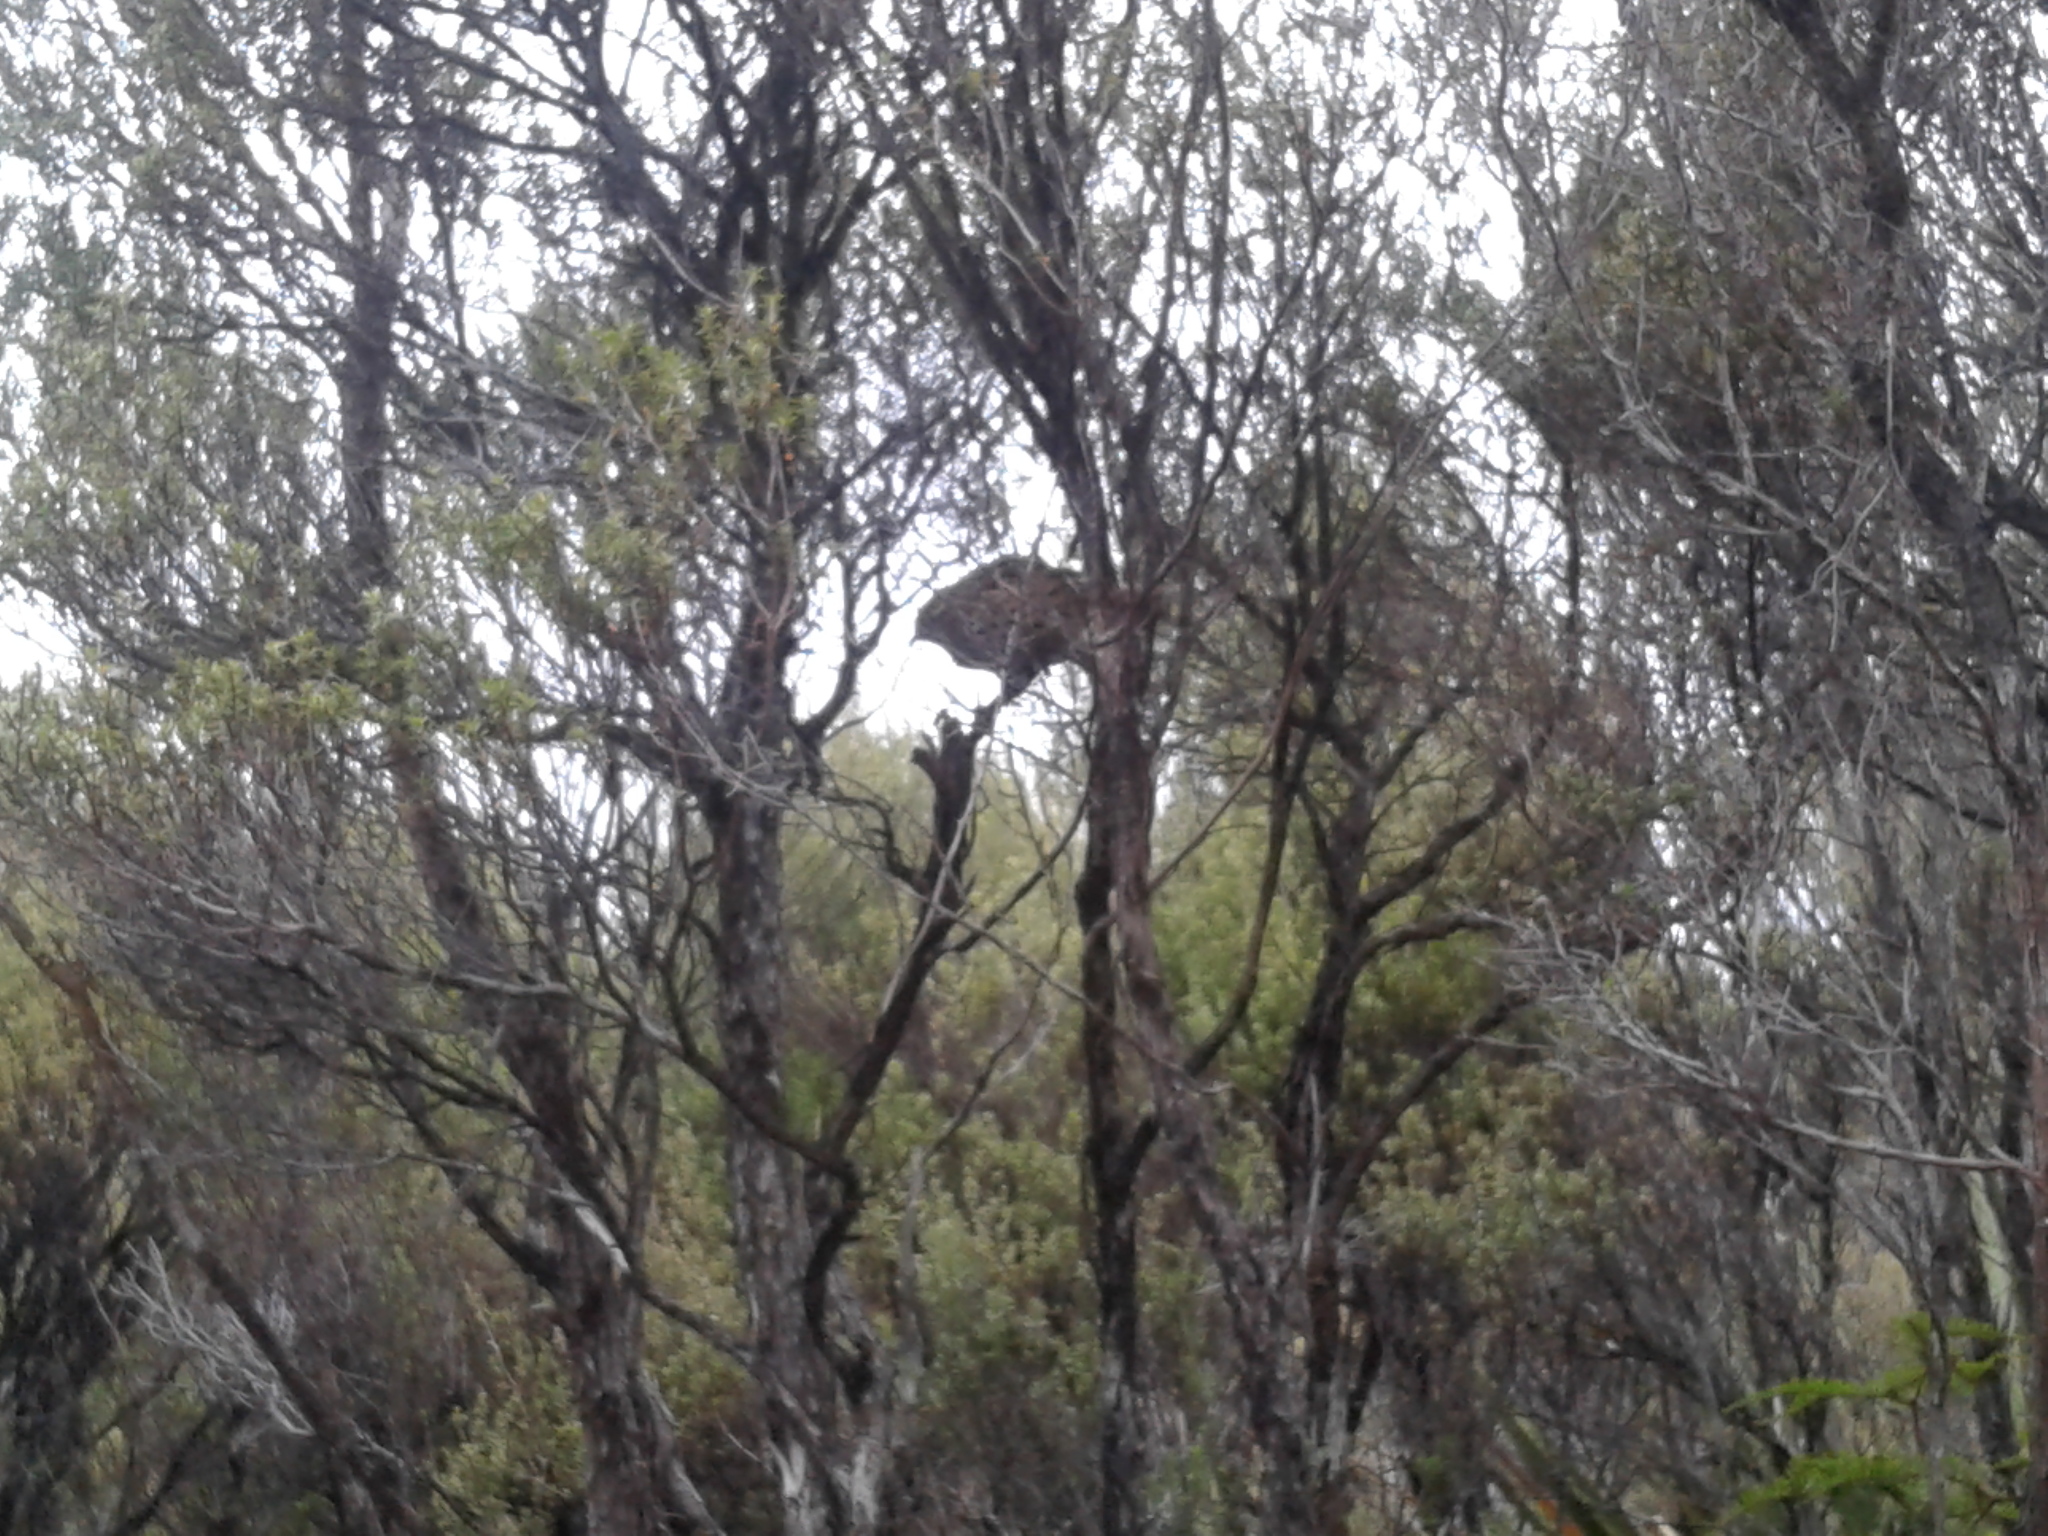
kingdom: Animalia
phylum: Chordata
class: Aves
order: Passeriformes
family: Locustellidae
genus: Poodytes
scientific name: Poodytes punctatus
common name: New zealand fernbird
